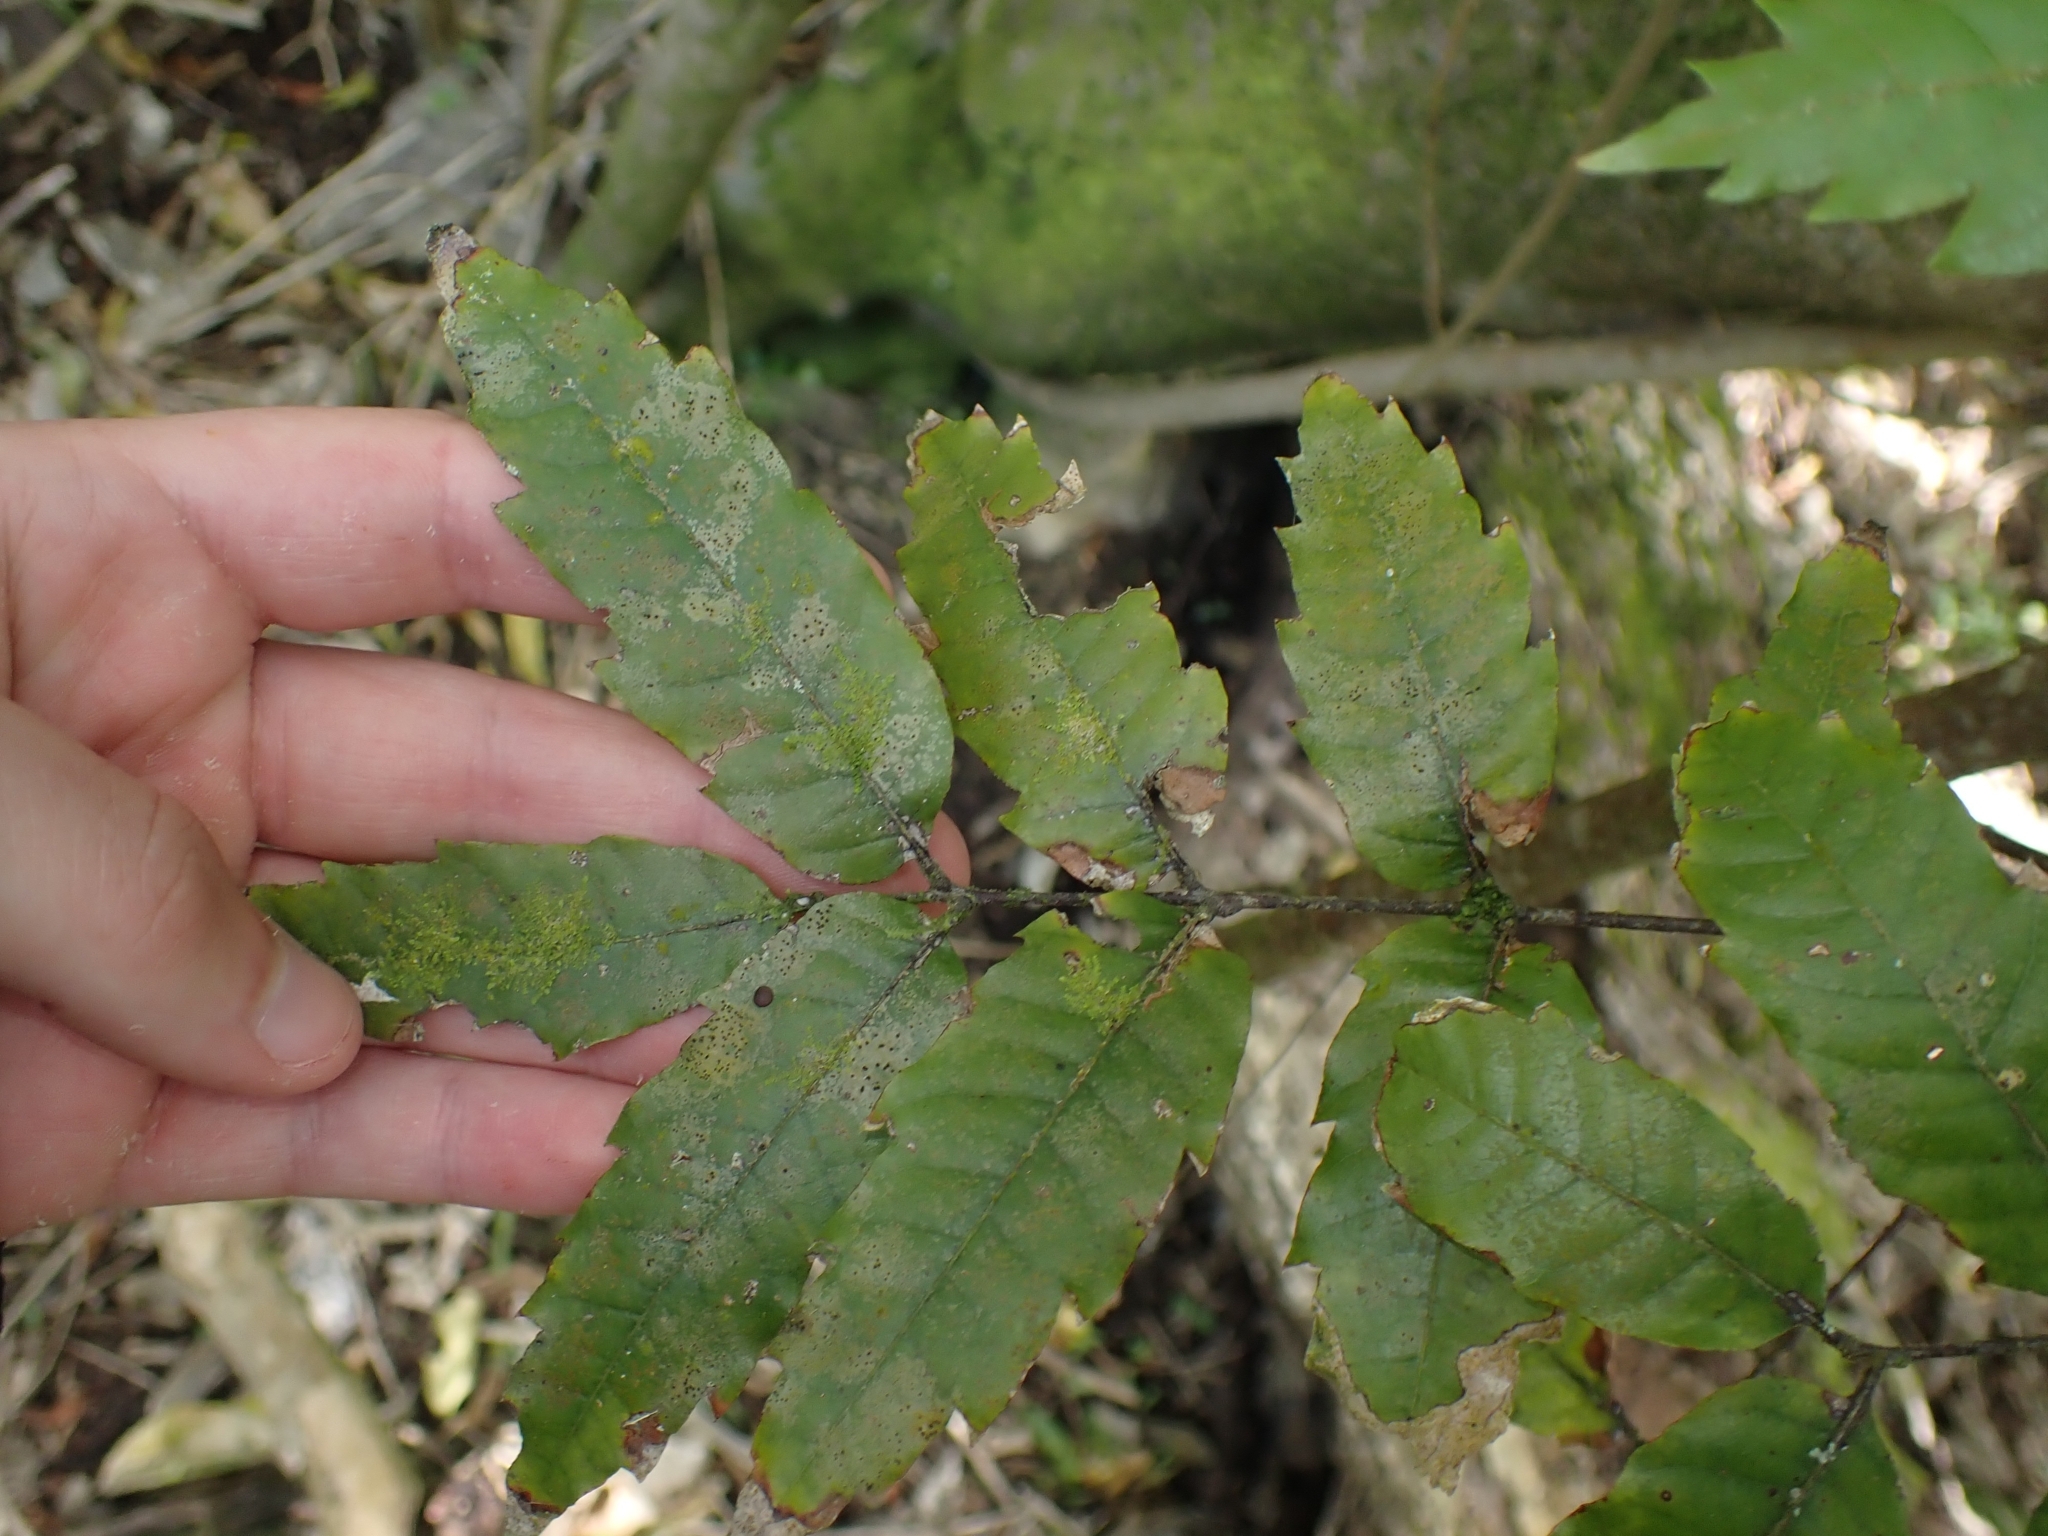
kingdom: Plantae
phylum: Tracheophyta
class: Magnoliopsida
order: Sapindales
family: Sapindaceae
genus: Alectryon
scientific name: Alectryon excelsus
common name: Three kings titoki
